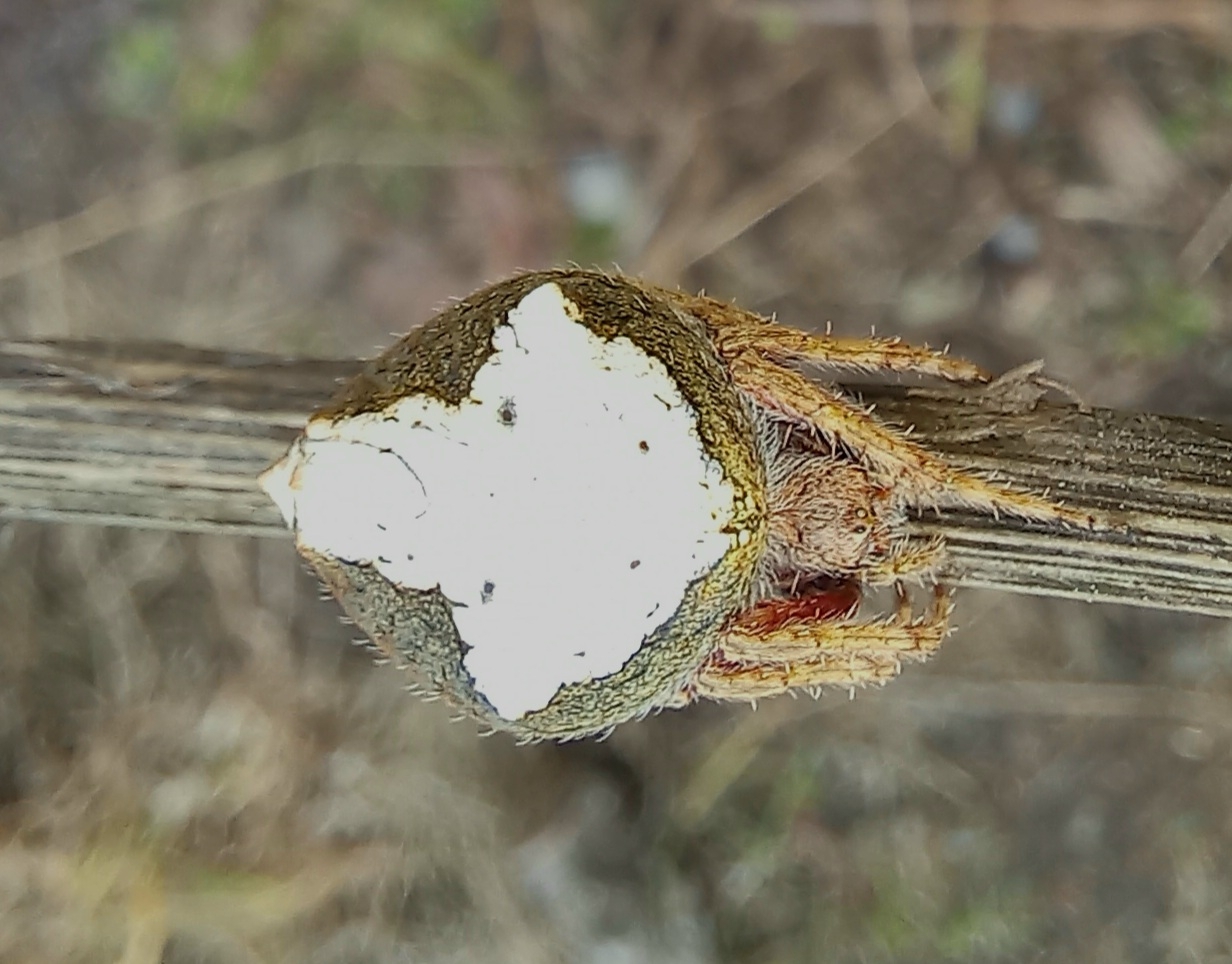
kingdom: Animalia
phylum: Arthropoda
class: Arachnida
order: Araneae
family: Araneidae
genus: Eriophora
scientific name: Eriophora pustulosa
